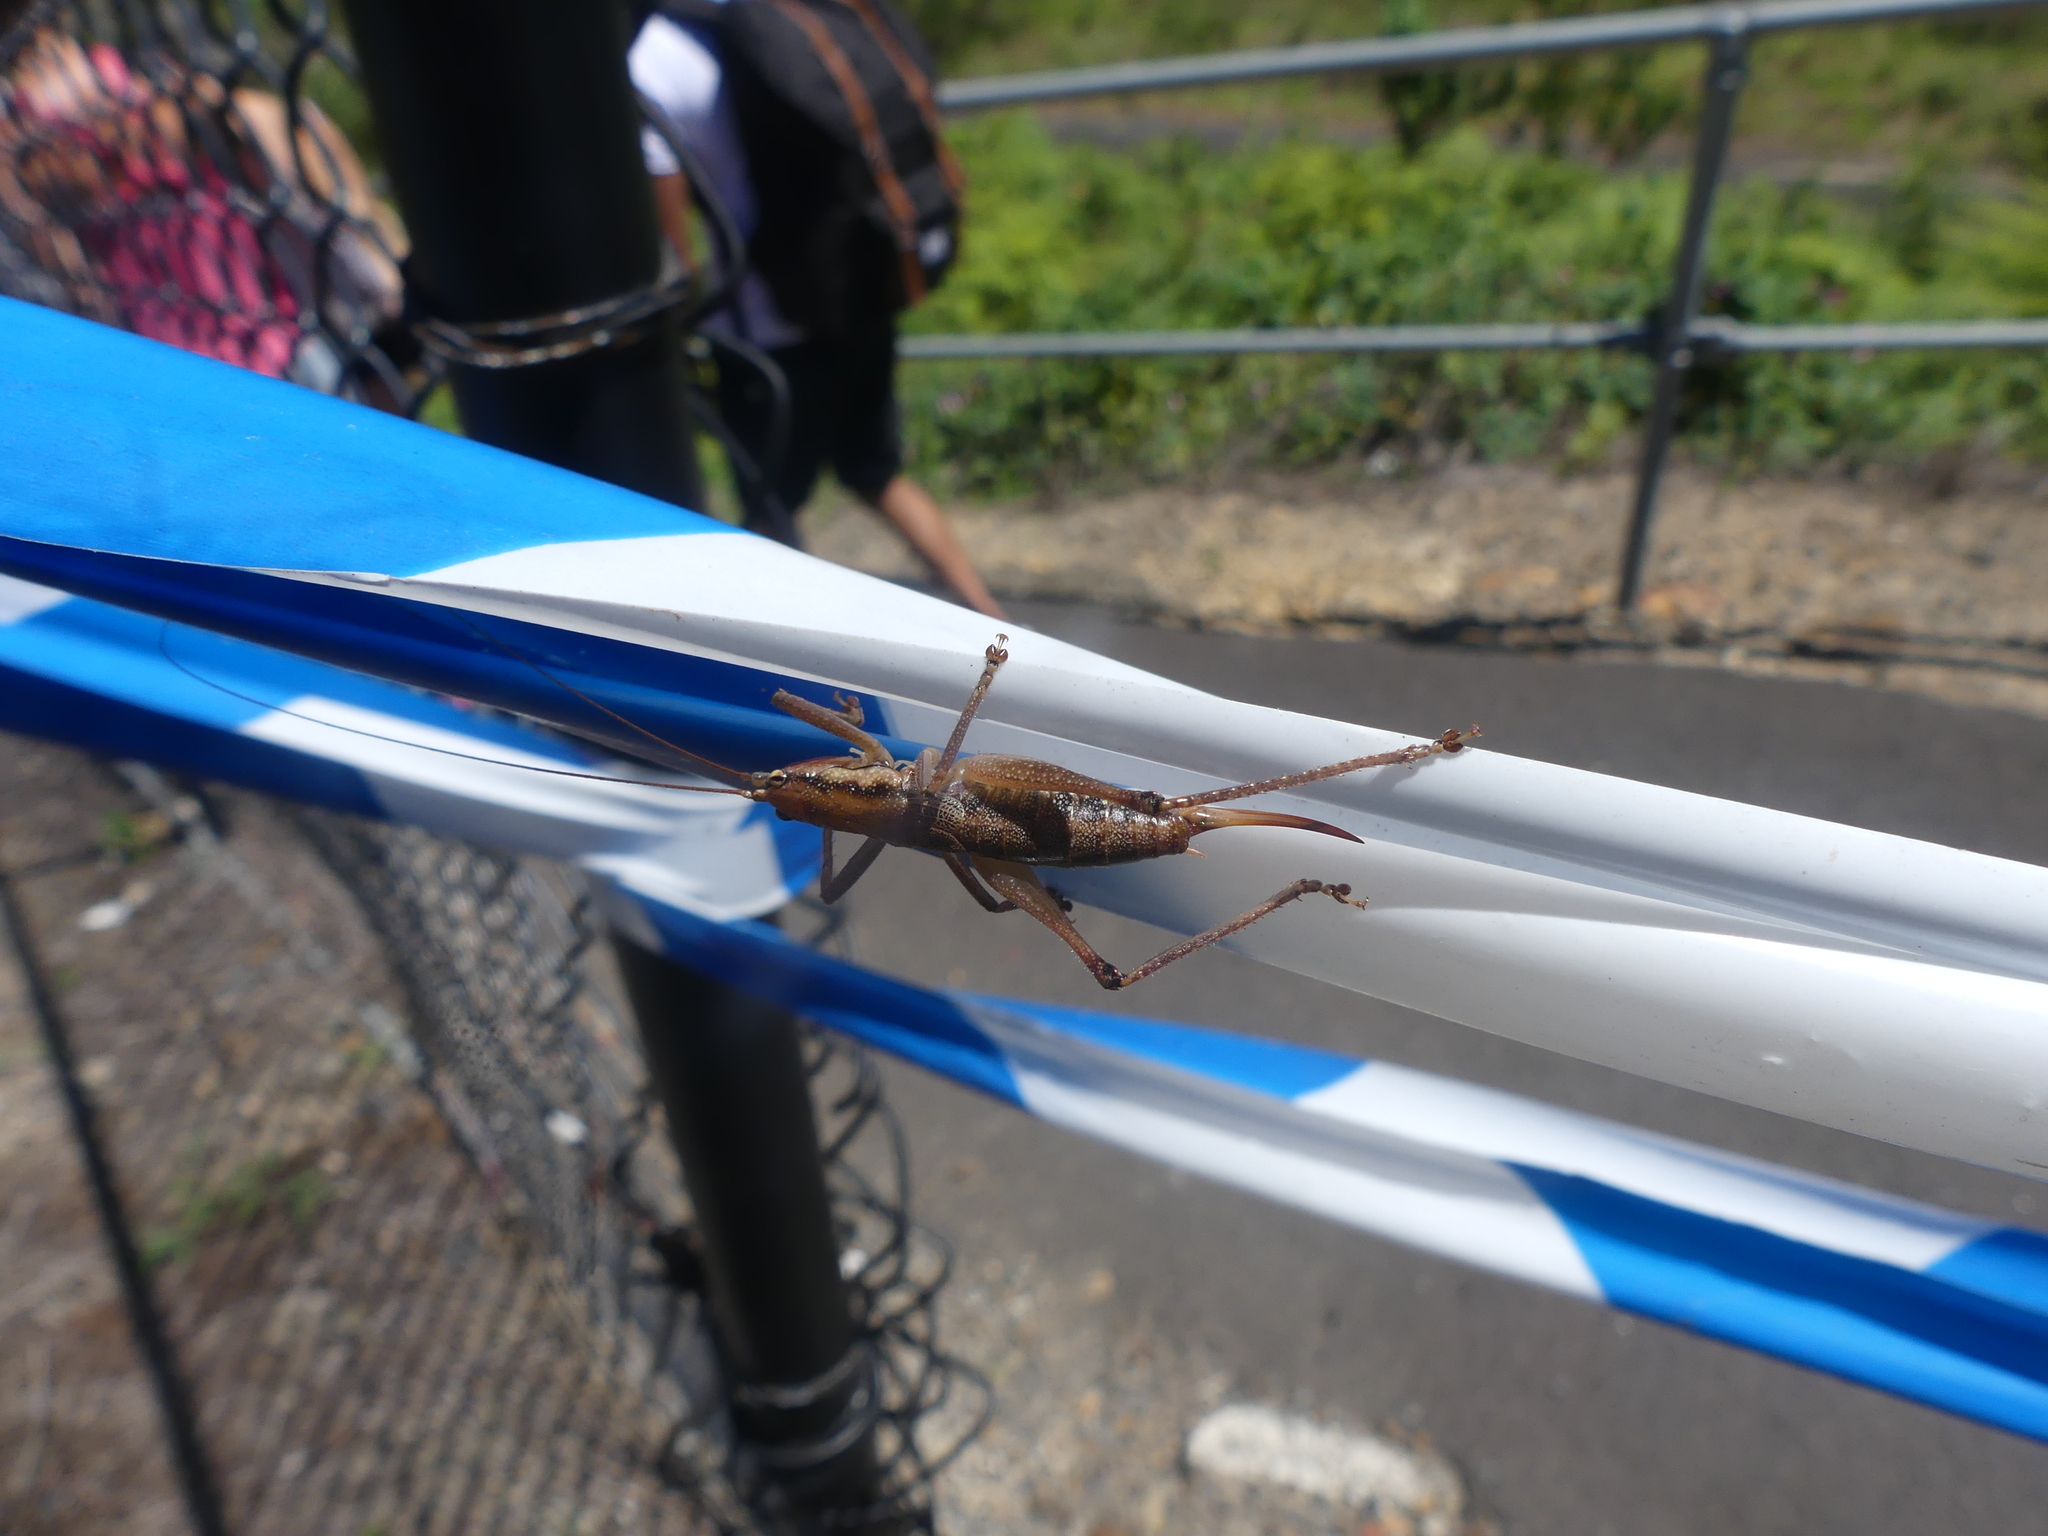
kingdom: Animalia
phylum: Arthropoda
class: Insecta
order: Orthoptera
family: Tettigoniidae
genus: Coptaspis
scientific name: Coptaspis brevipennis
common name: Sidney woodland katydid
